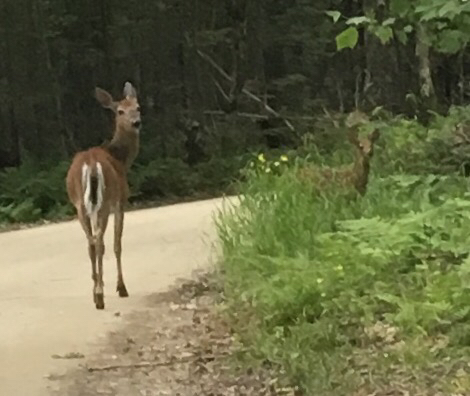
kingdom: Animalia
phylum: Chordata
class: Mammalia
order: Artiodactyla
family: Cervidae
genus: Odocoileus
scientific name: Odocoileus virginianus
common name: White-tailed deer
